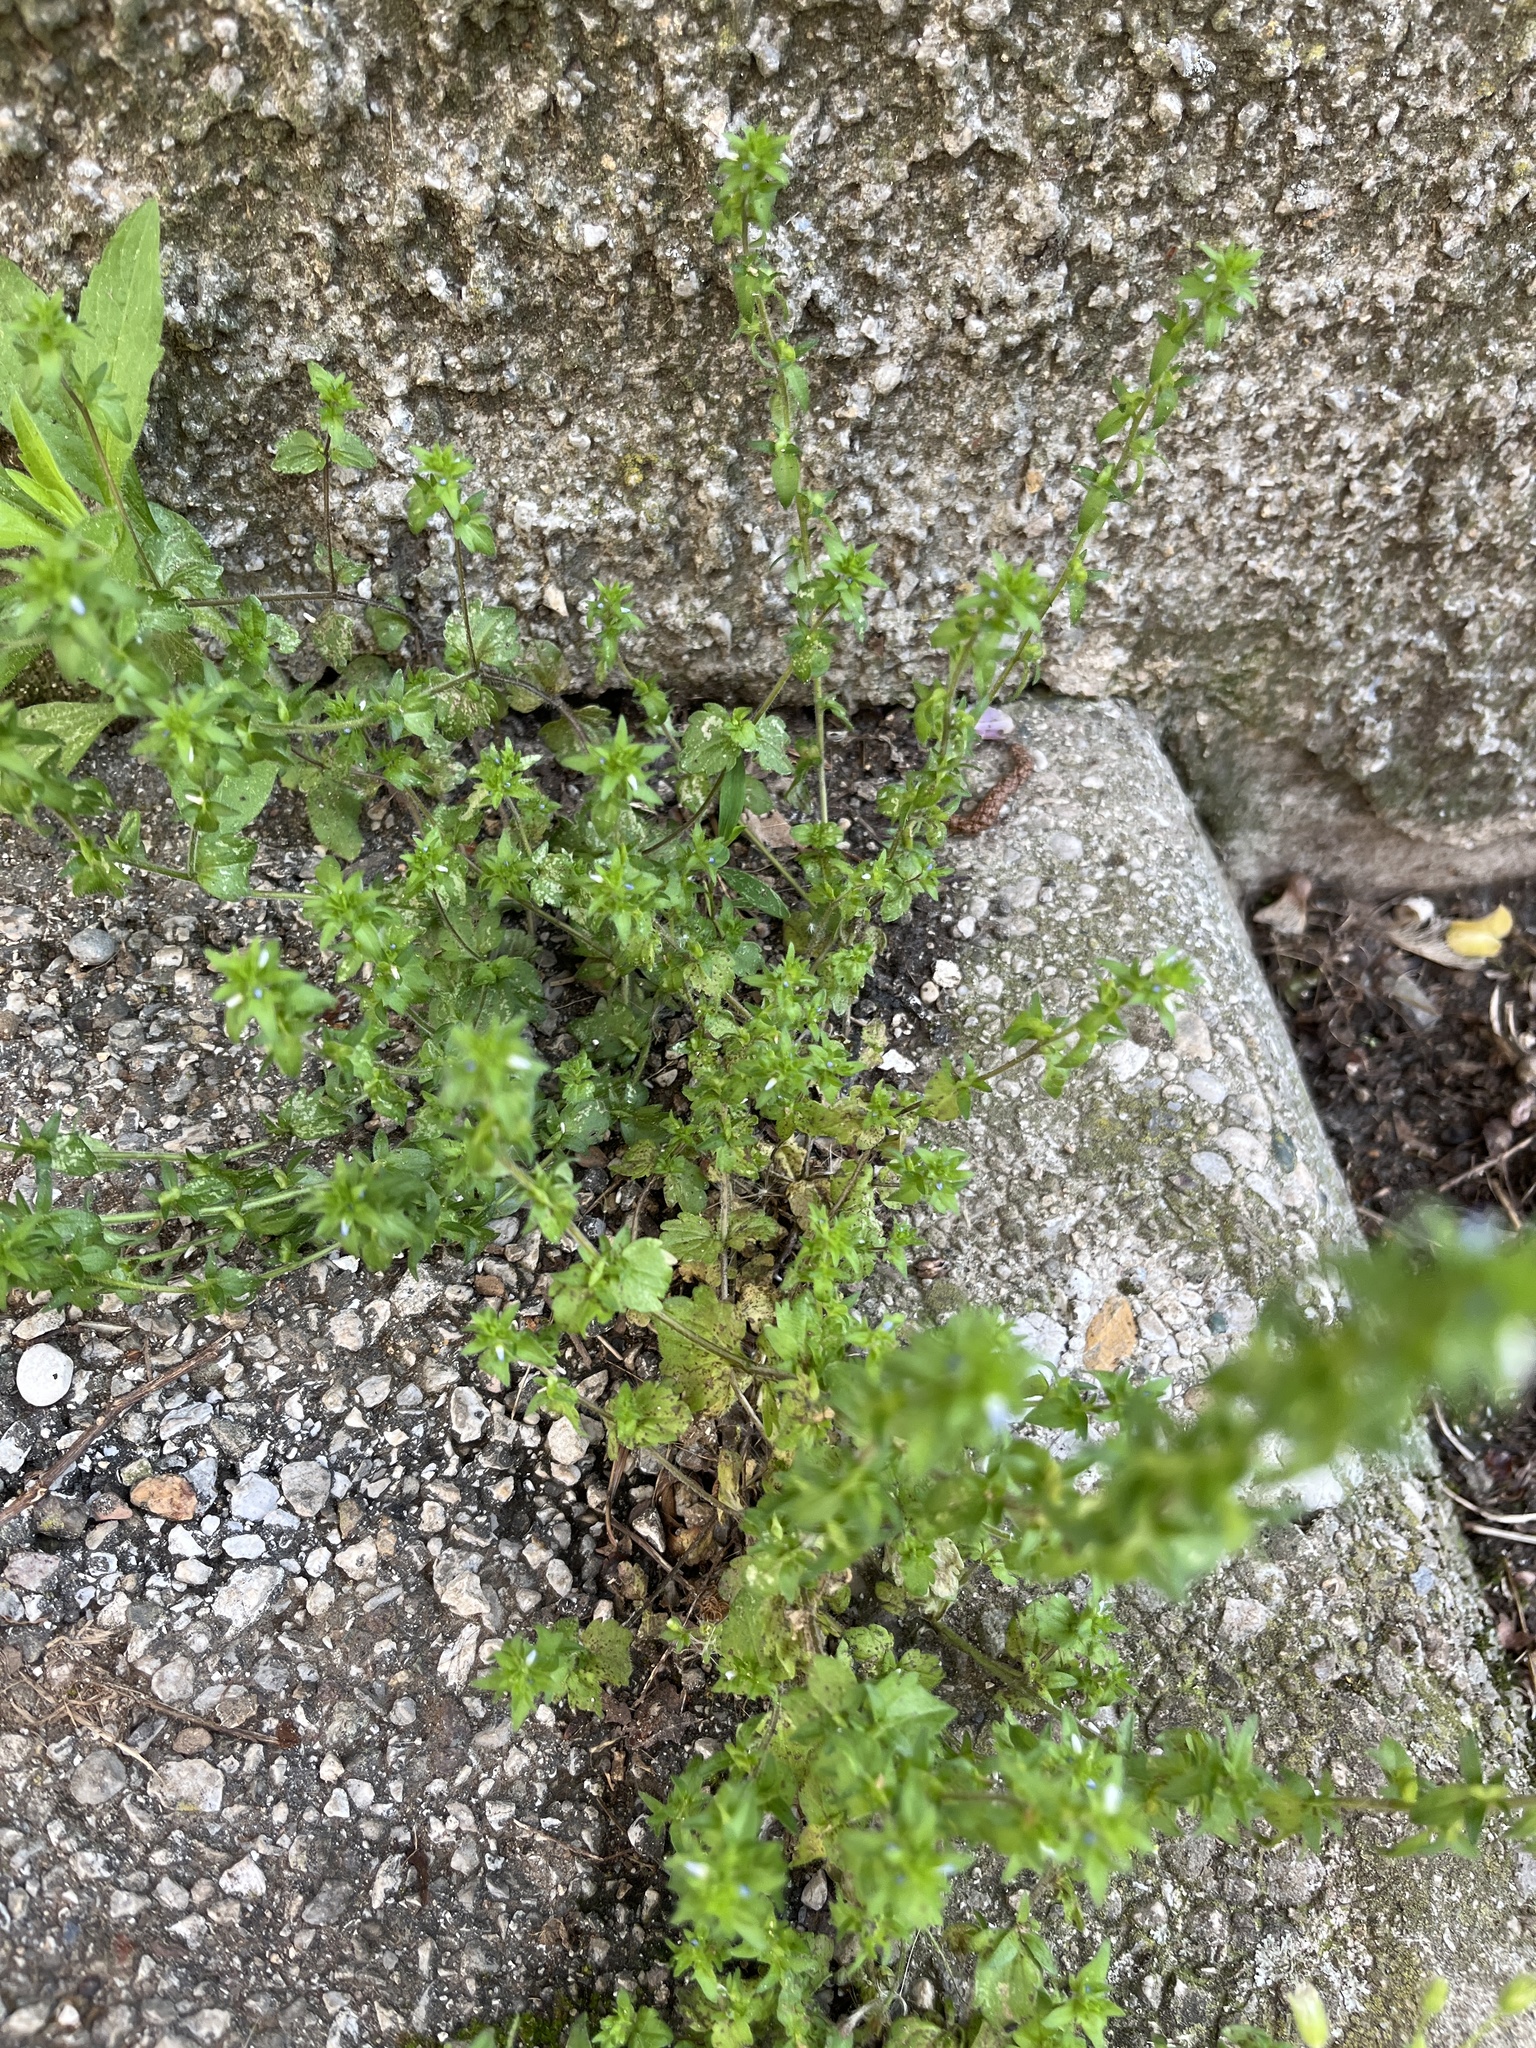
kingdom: Plantae
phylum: Tracheophyta
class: Magnoliopsida
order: Lamiales
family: Plantaginaceae
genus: Veronica
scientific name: Veronica arvensis
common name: Corn speedwell
